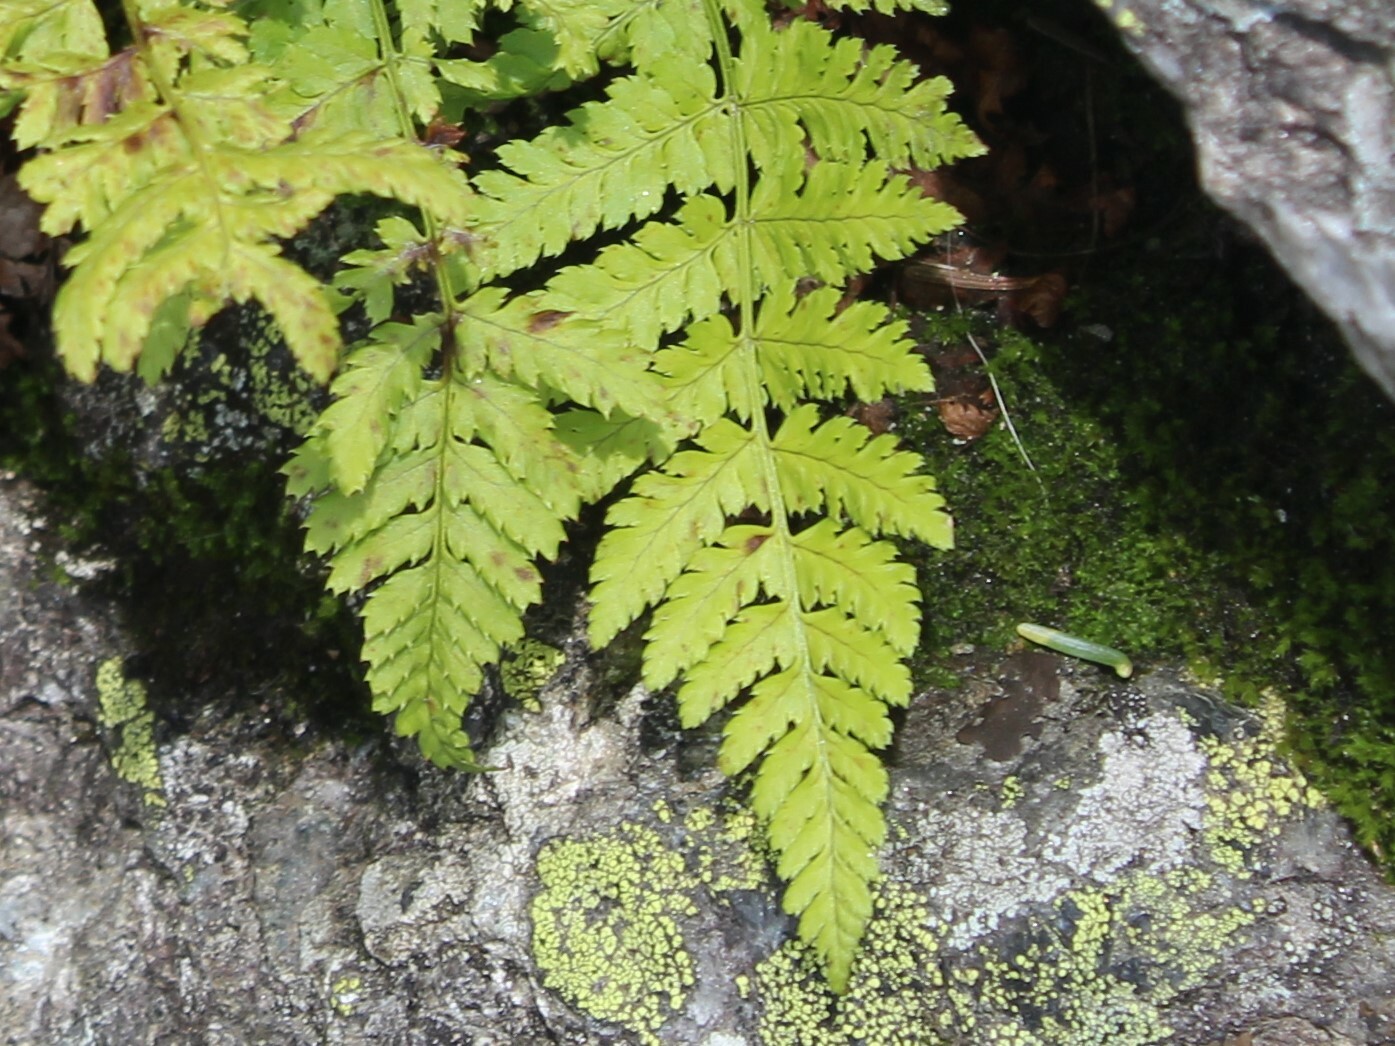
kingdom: Plantae
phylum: Tracheophyta
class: Polypodiopsida
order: Polypodiales
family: Dryopteridaceae
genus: Dryopteris
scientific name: Dryopteris intermedia
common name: Evergreen wood fern
